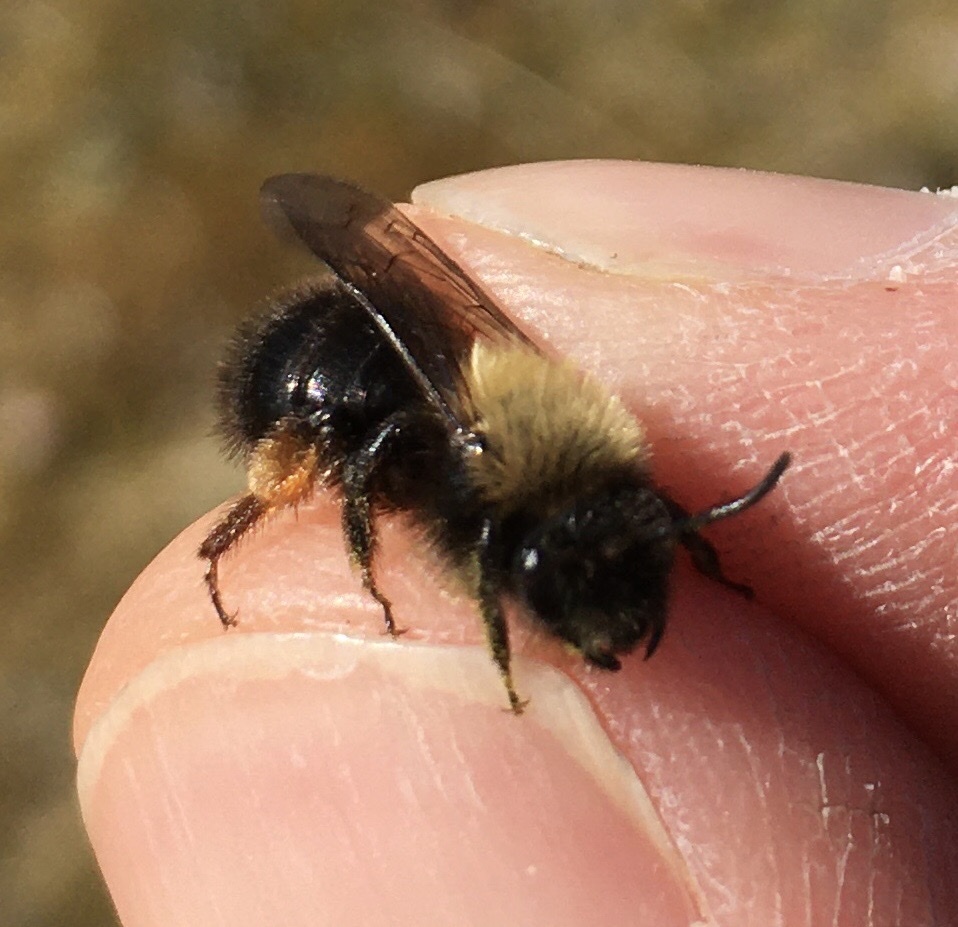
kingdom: Animalia
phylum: Arthropoda
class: Insecta
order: Hymenoptera
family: Andrenidae
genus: Andrena
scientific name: Andrena clarkella
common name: Clarke's mining bee
